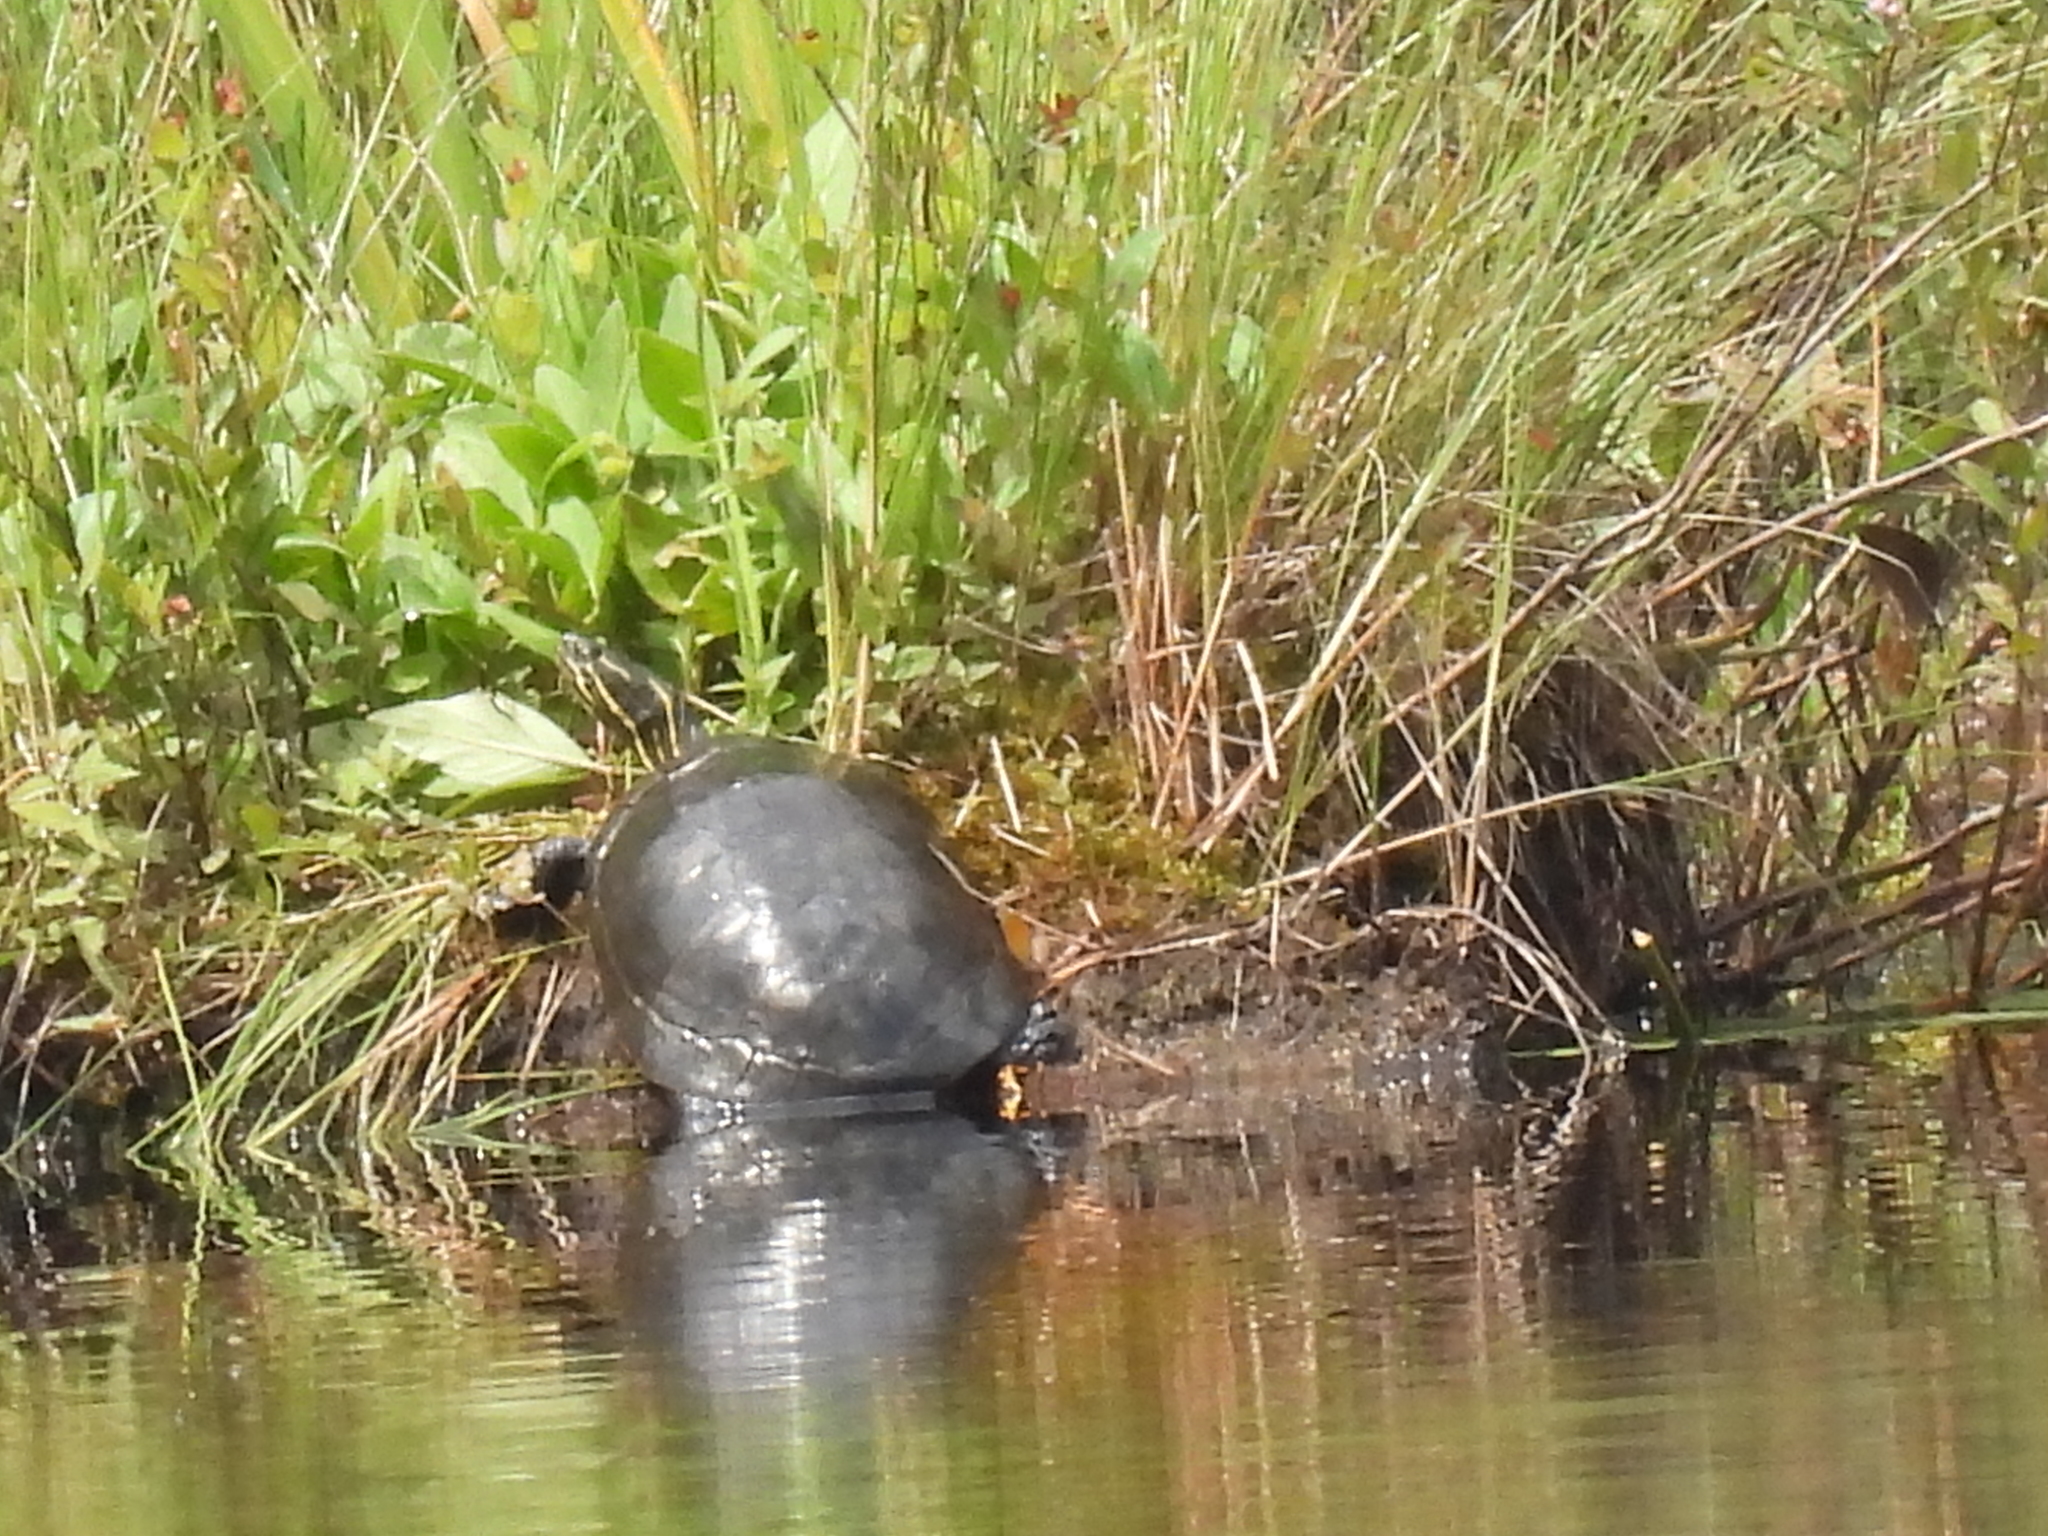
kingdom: Animalia
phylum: Chordata
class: Testudines
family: Emydidae
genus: Chrysemys
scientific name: Chrysemys picta
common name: Painted turtle
